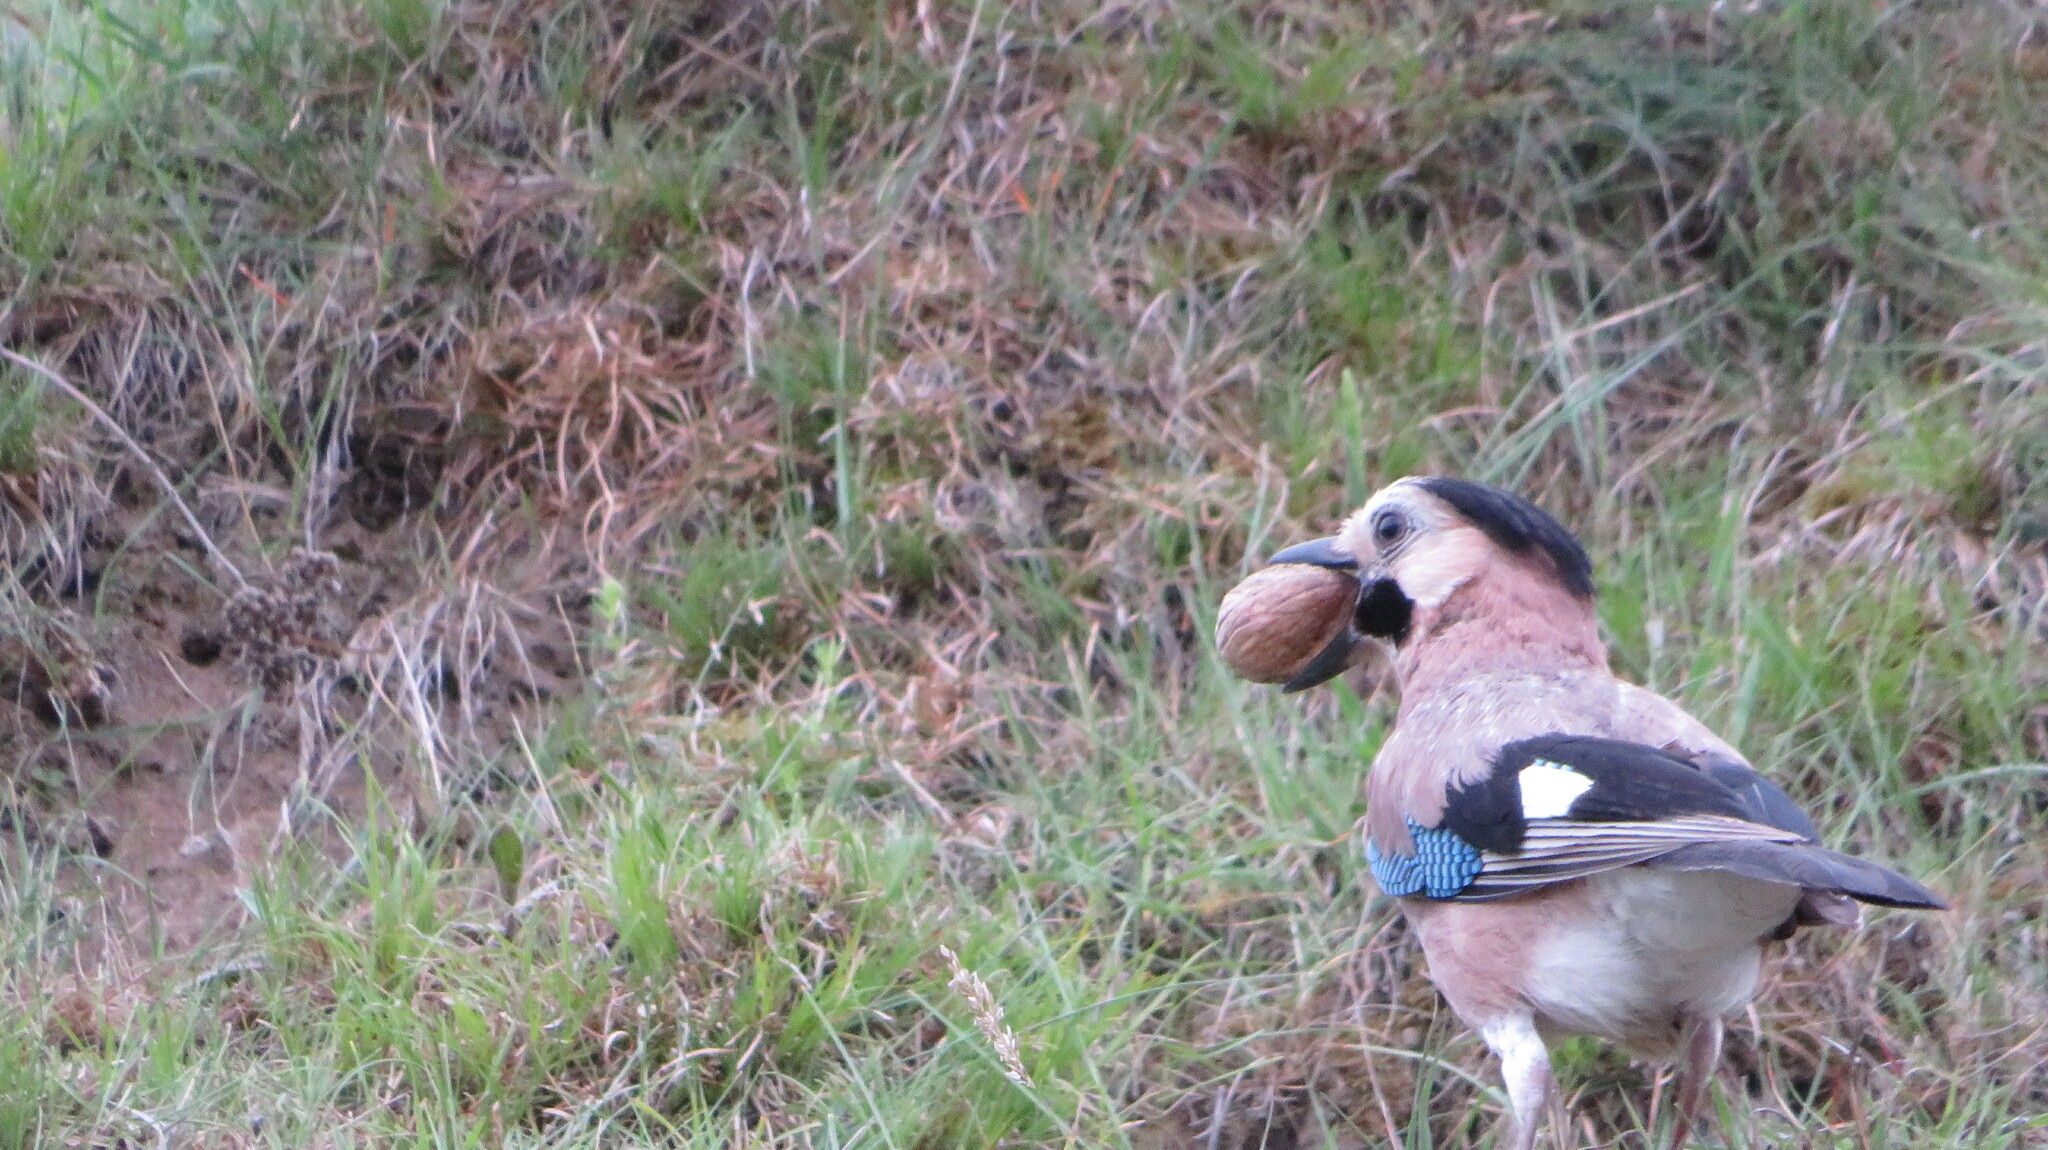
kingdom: Animalia
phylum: Chordata
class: Aves
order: Passeriformes
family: Corvidae
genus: Garrulus
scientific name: Garrulus glandarius
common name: Eurasian jay
